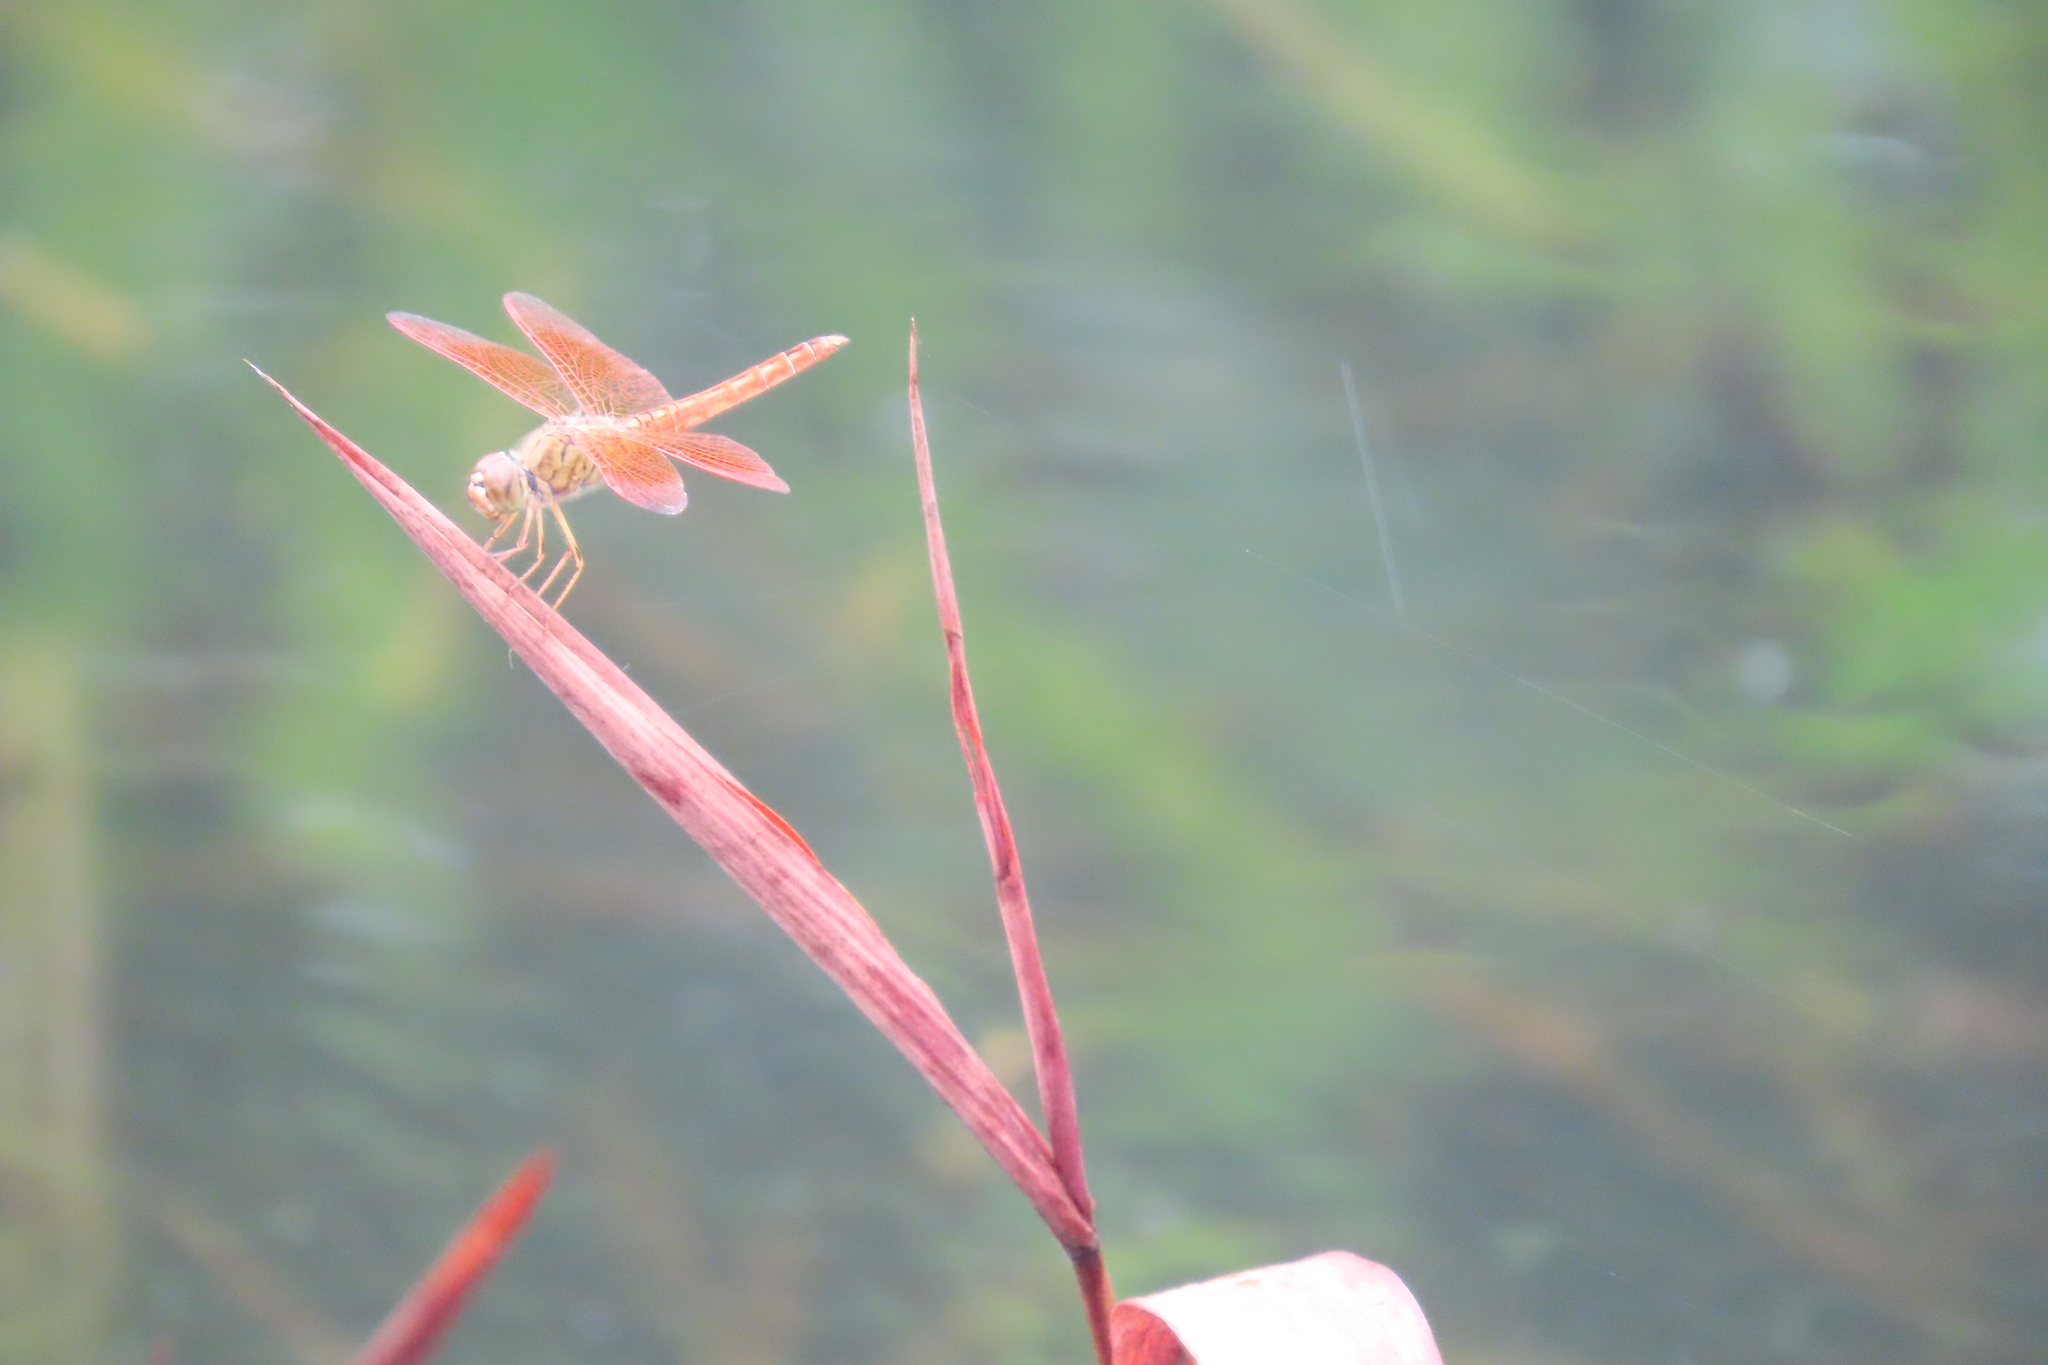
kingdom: Animalia
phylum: Arthropoda
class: Insecta
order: Odonata
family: Libellulidae
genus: Brachythemis
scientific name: Brachythemis contaminata
